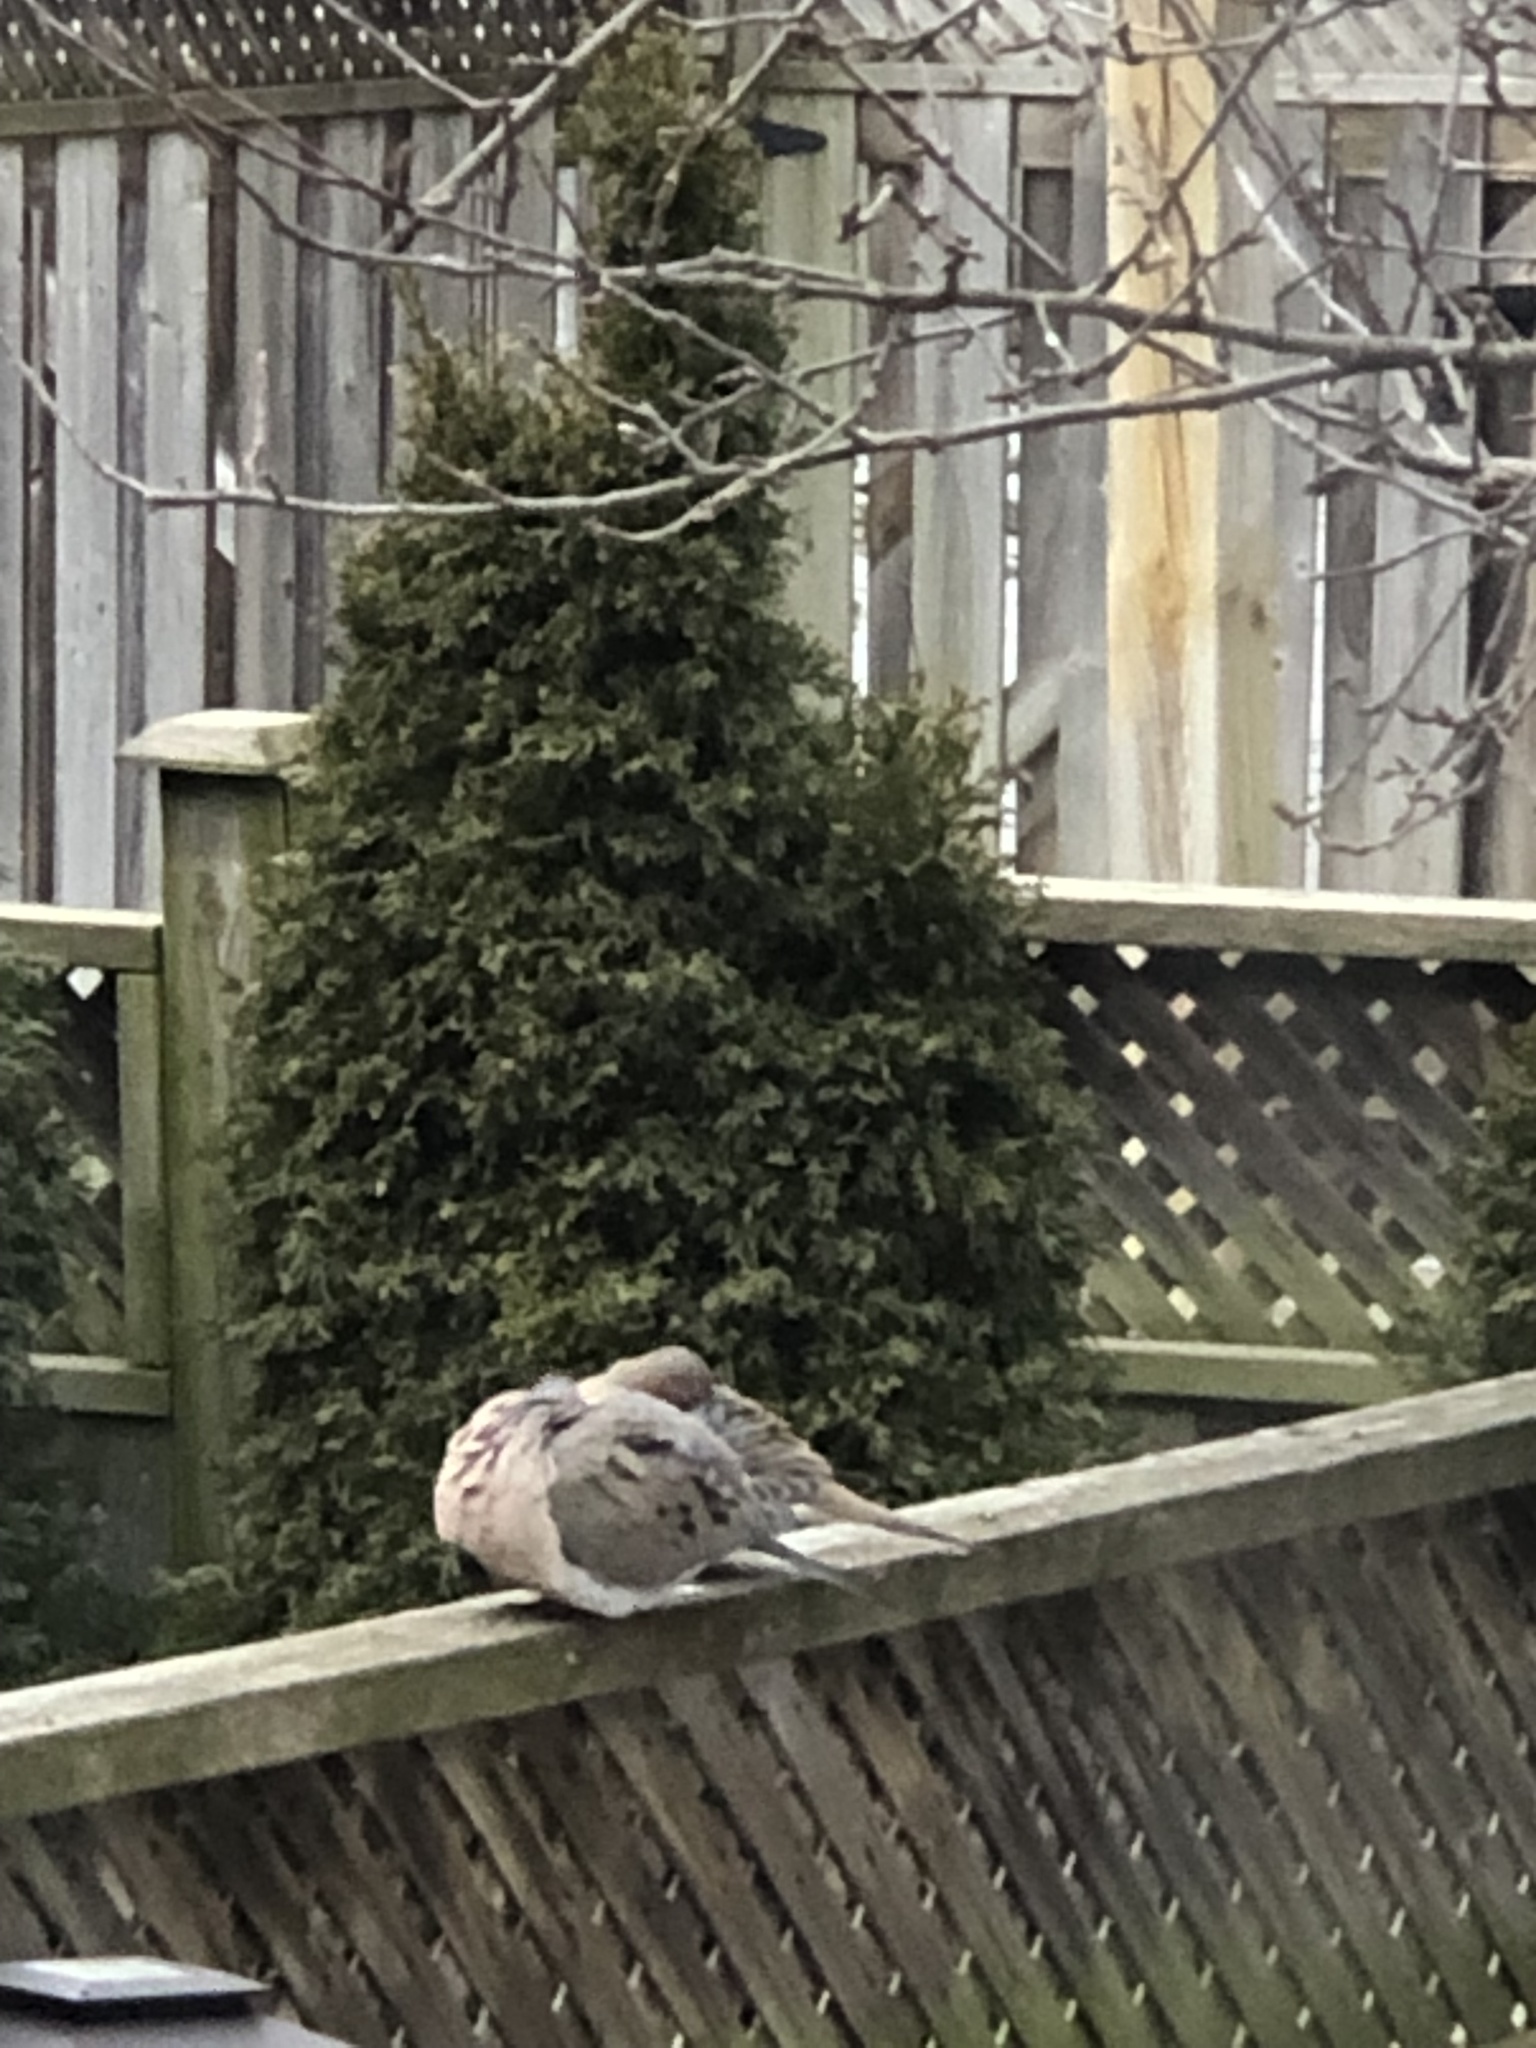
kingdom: Animalia
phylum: Chordata
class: Aves
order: Columbiformes
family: Columbidae
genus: Zenaida
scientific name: Zenaida macroura
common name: Mourning dove
